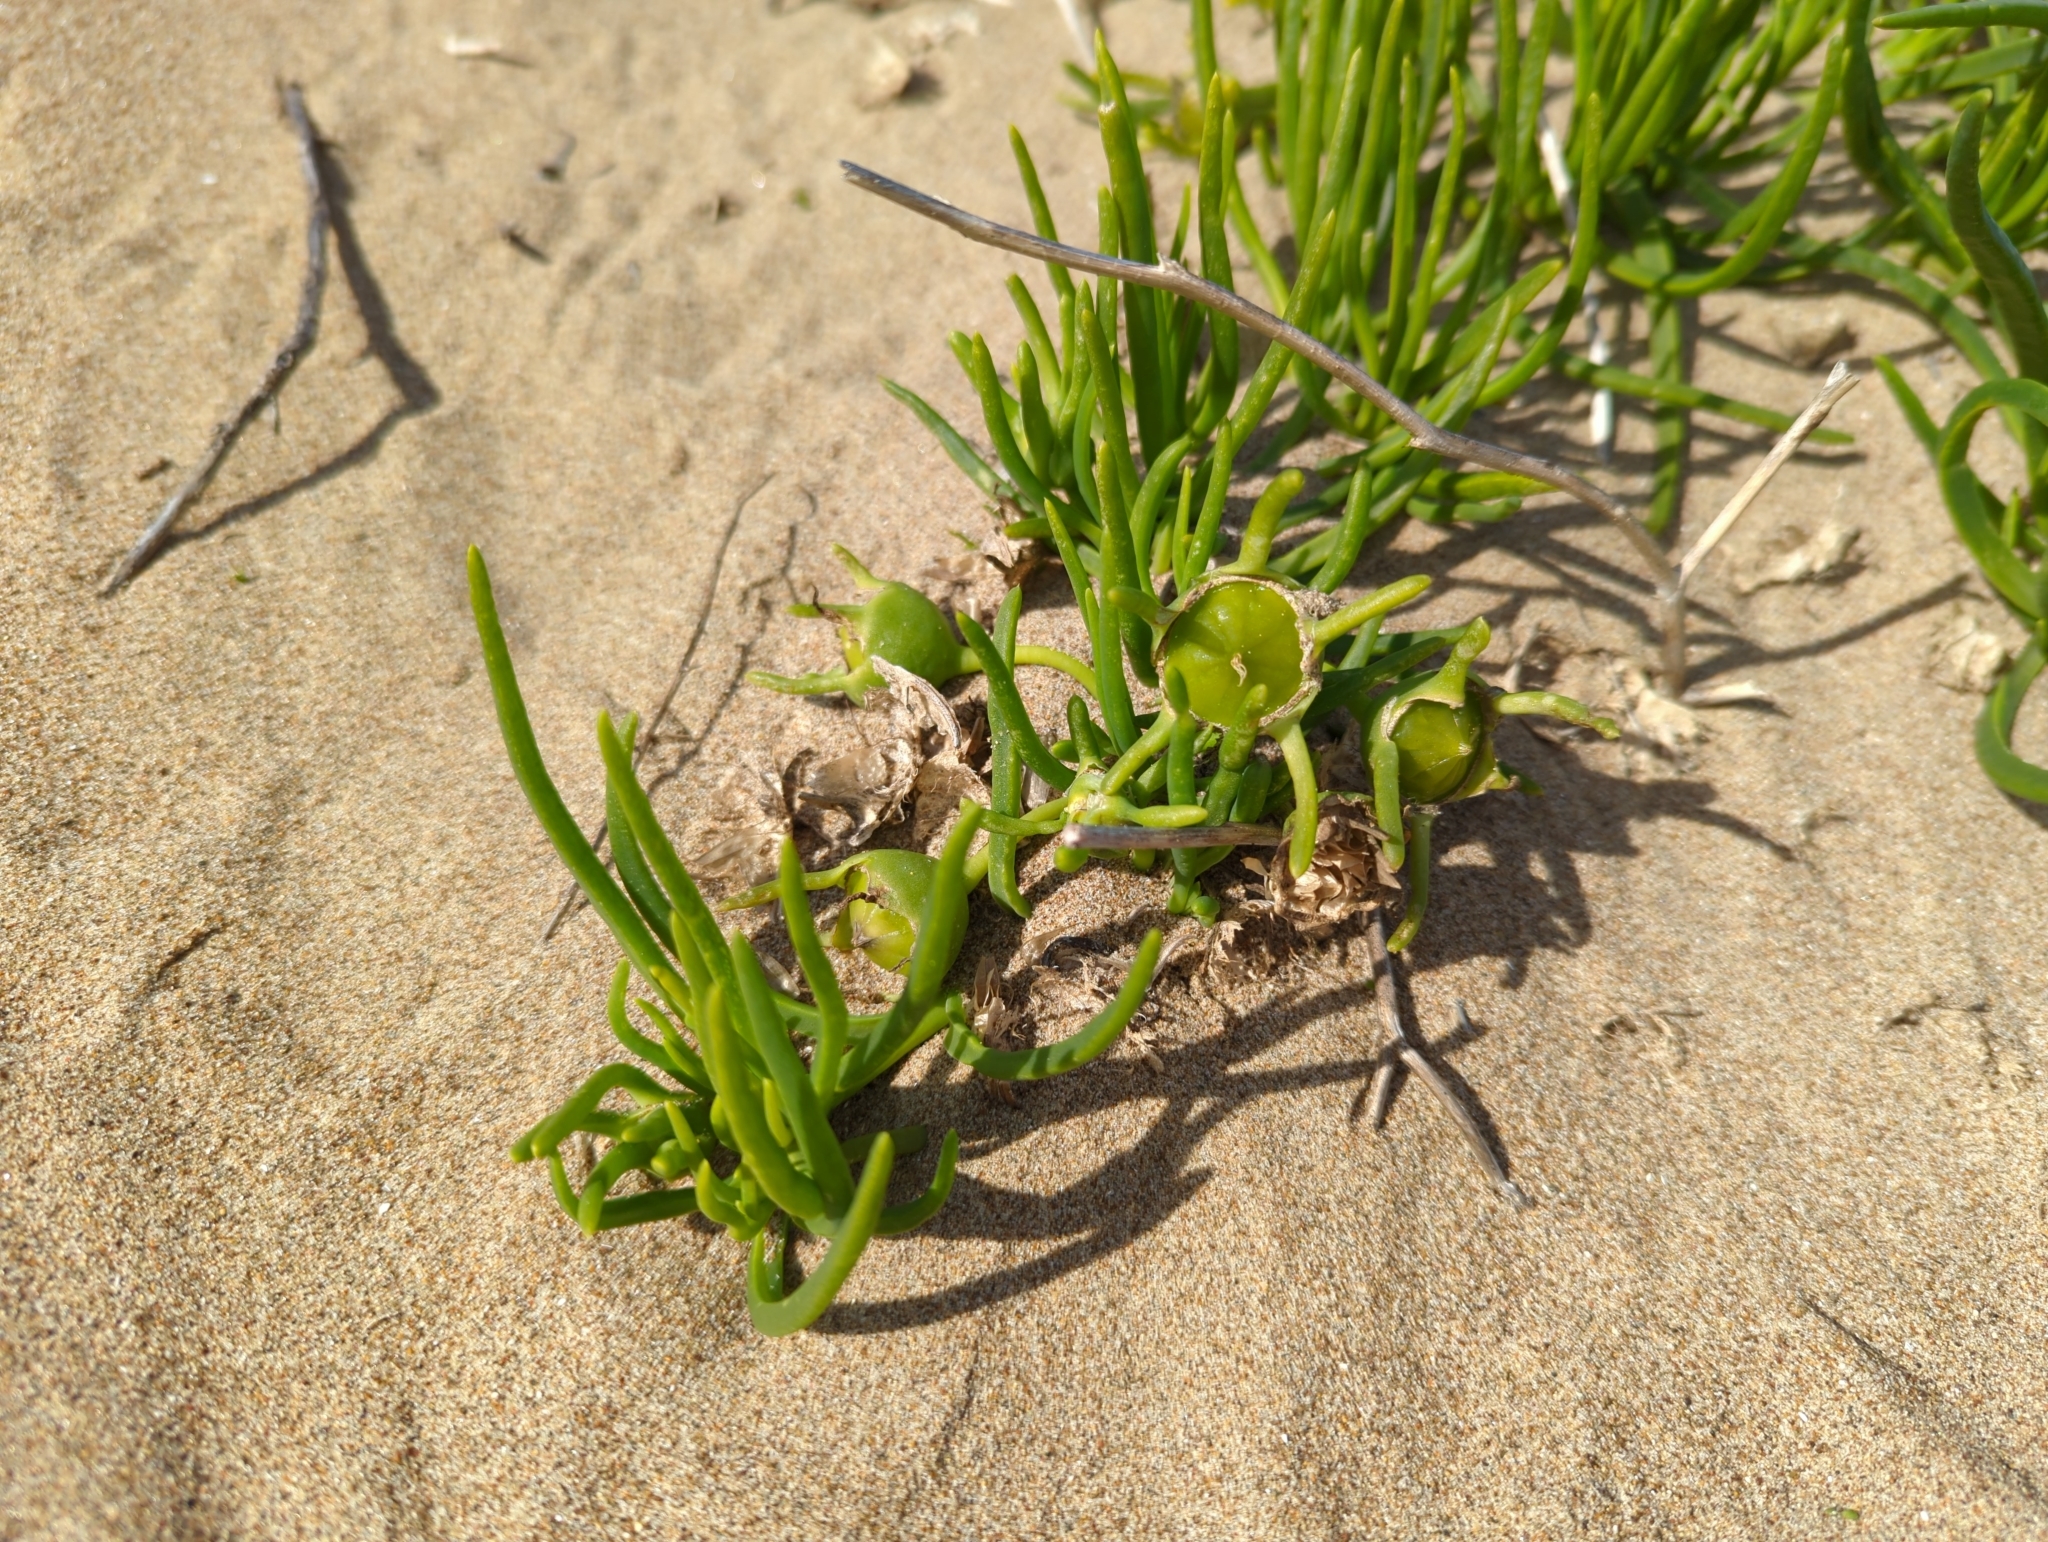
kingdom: Plantae
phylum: Tracheophyta
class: Magnoliopsida
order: Caryophyllales
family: Aizoaceae
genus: Conicosia
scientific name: Conicosia pugioniformis
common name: Narrow-leaved iceplant
